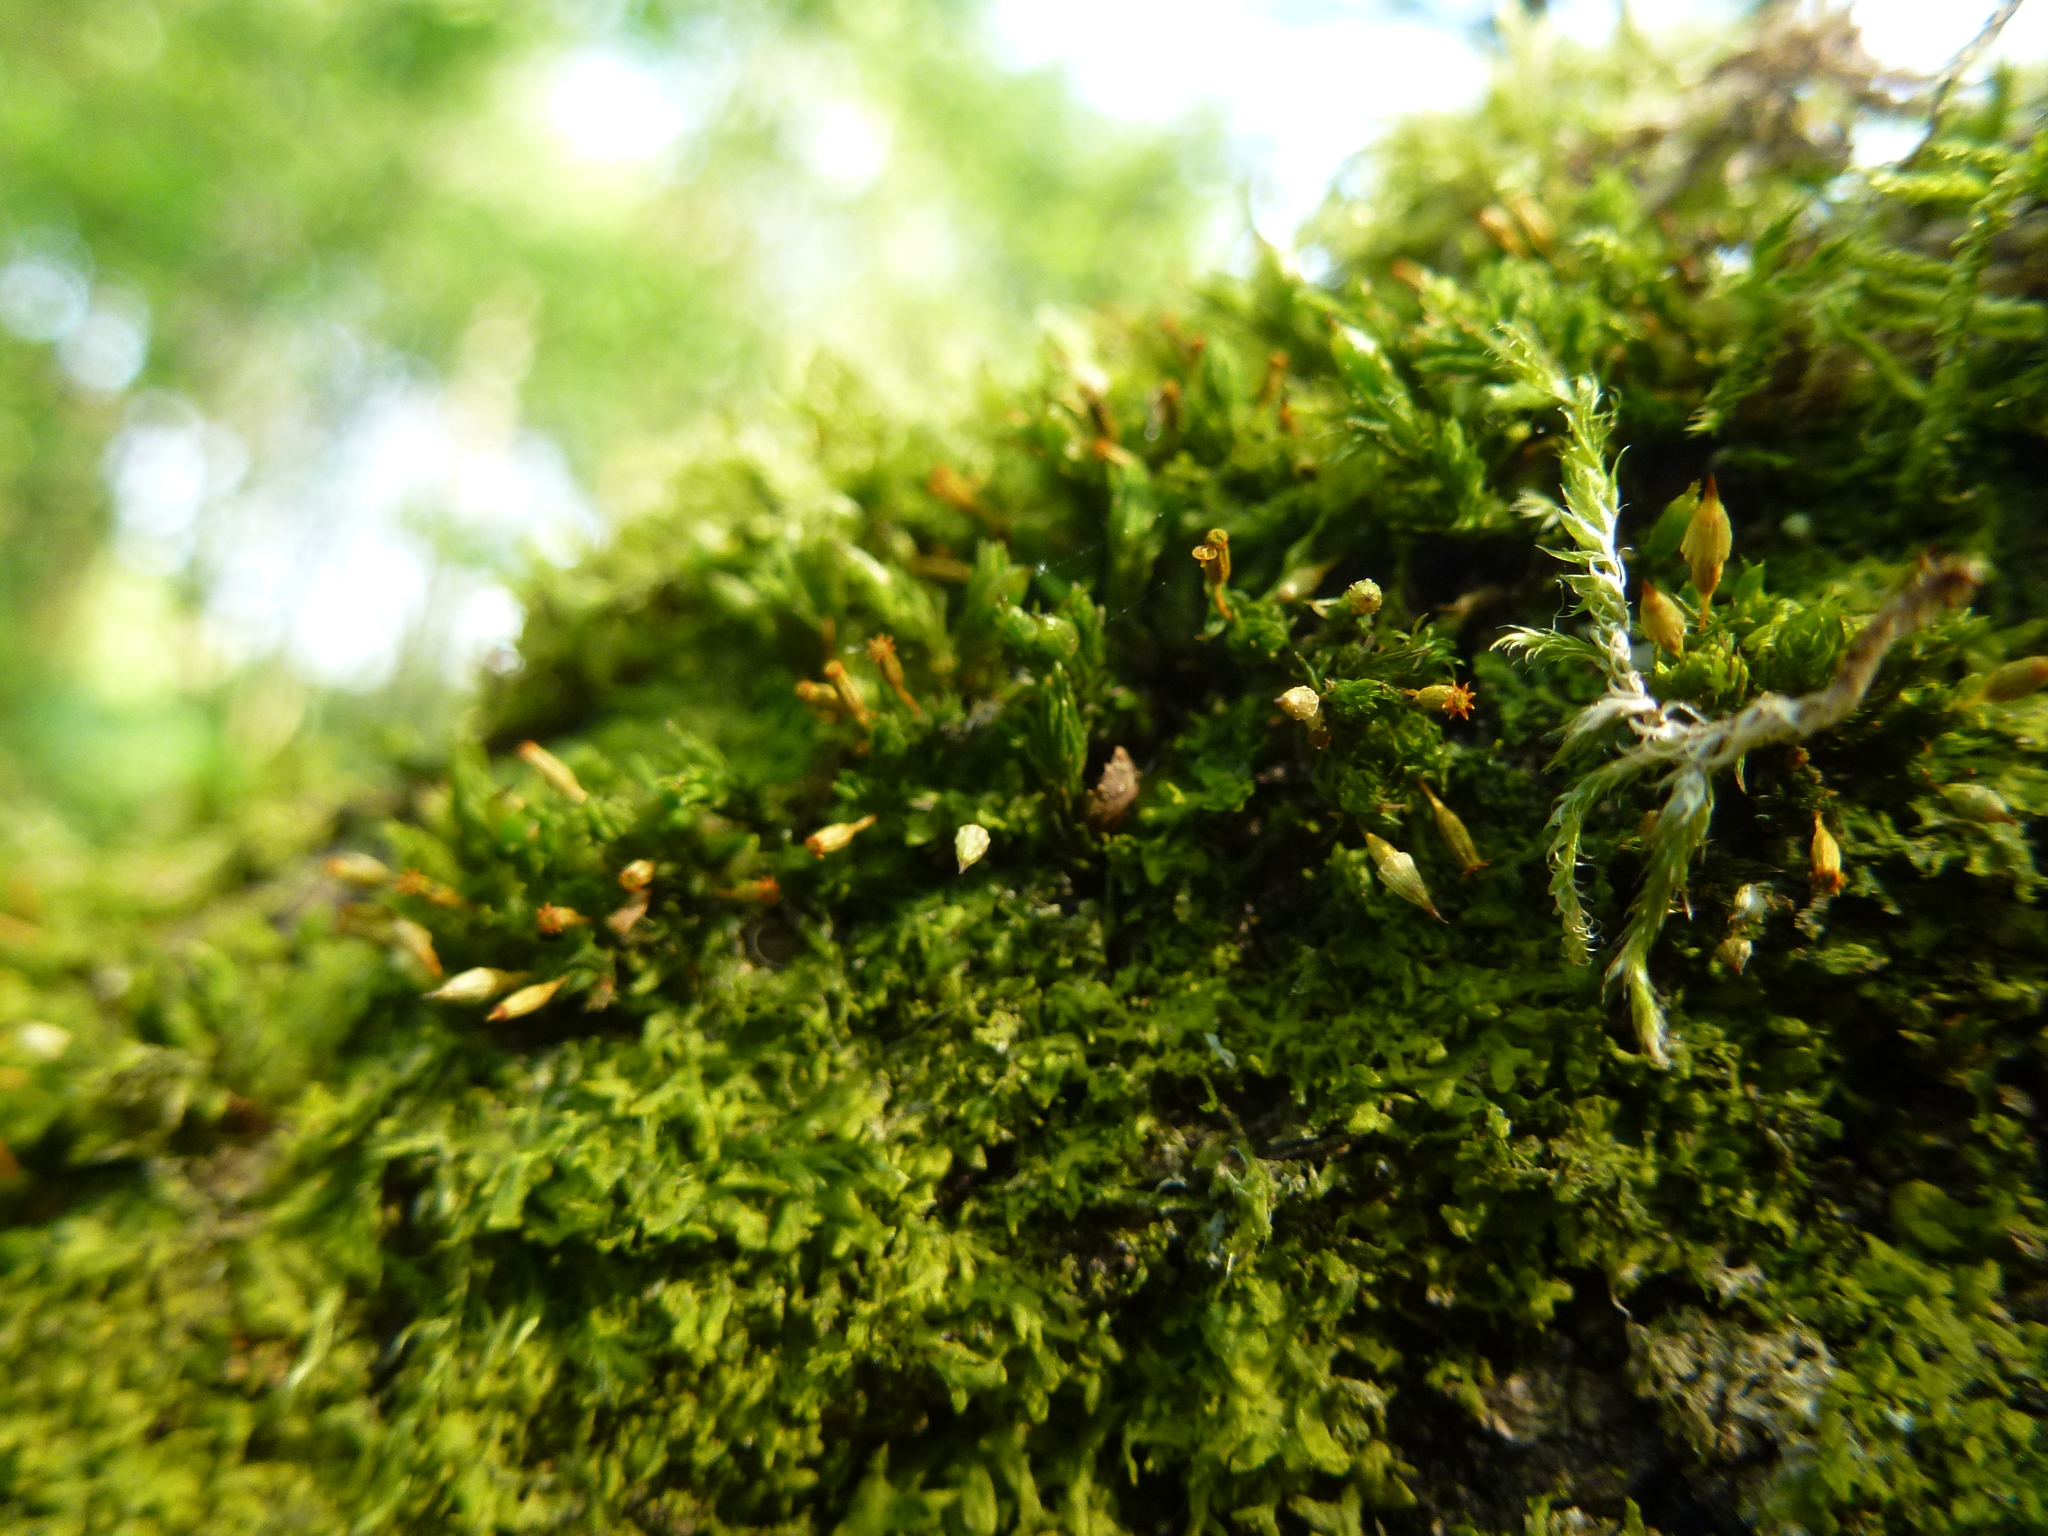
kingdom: Plantae
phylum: Bryophyta
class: Bryopsida
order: Orthotrichales
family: Orthotrichaceae
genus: Orthotrichum
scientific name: Orthotrichum pulchellum
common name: Elegant bristle-moss
